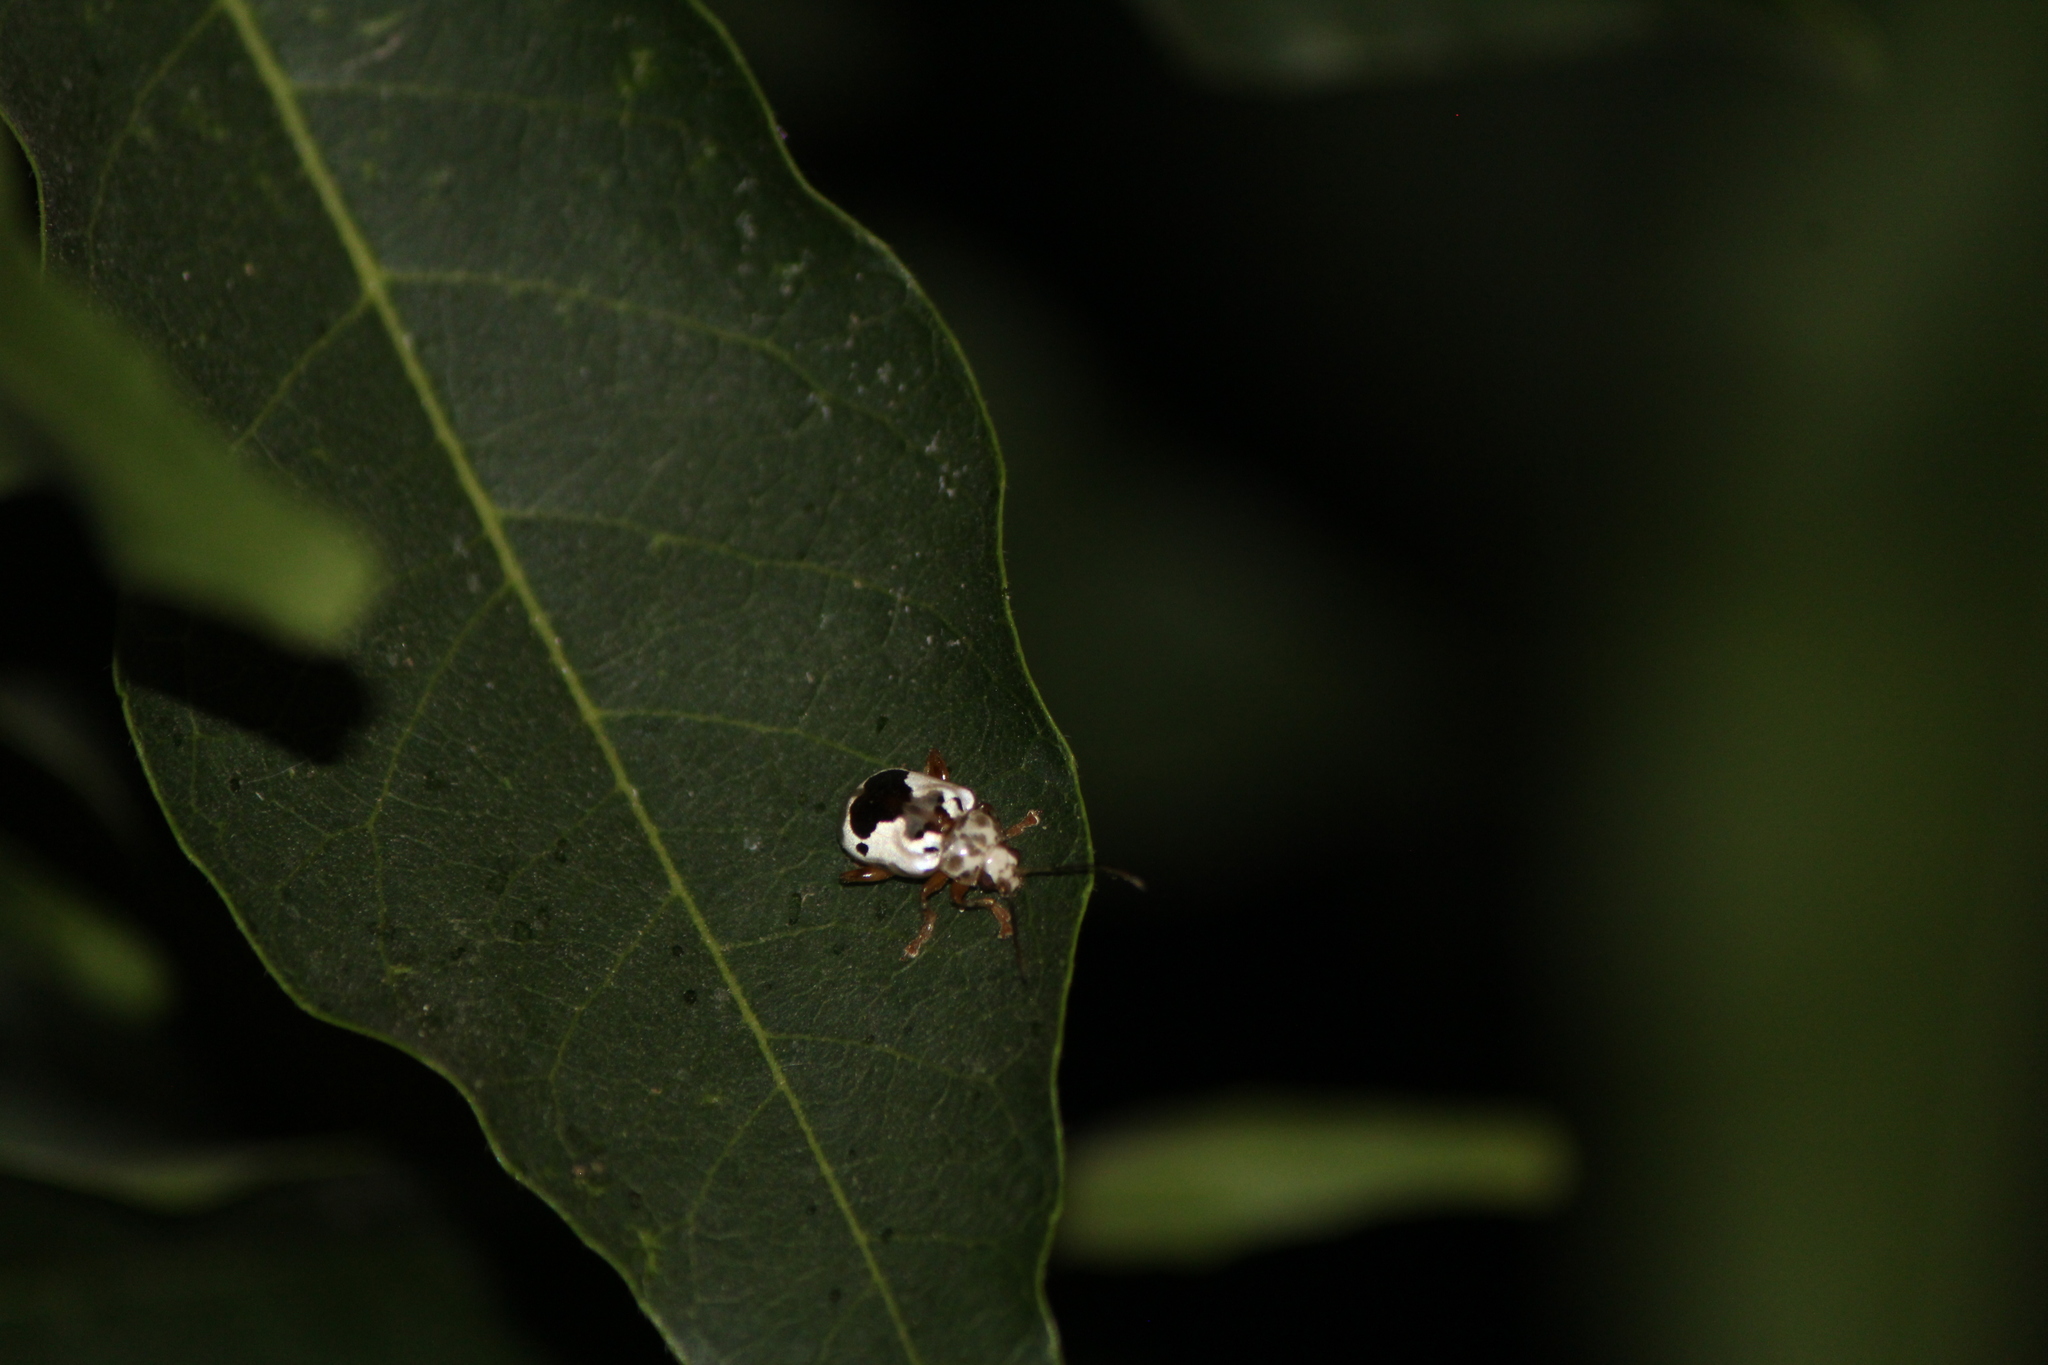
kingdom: Animalia
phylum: Arthropoda
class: Insecta
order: Coleoptera
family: Chrysomelidae
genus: Acrocyum
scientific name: Acrocyum
